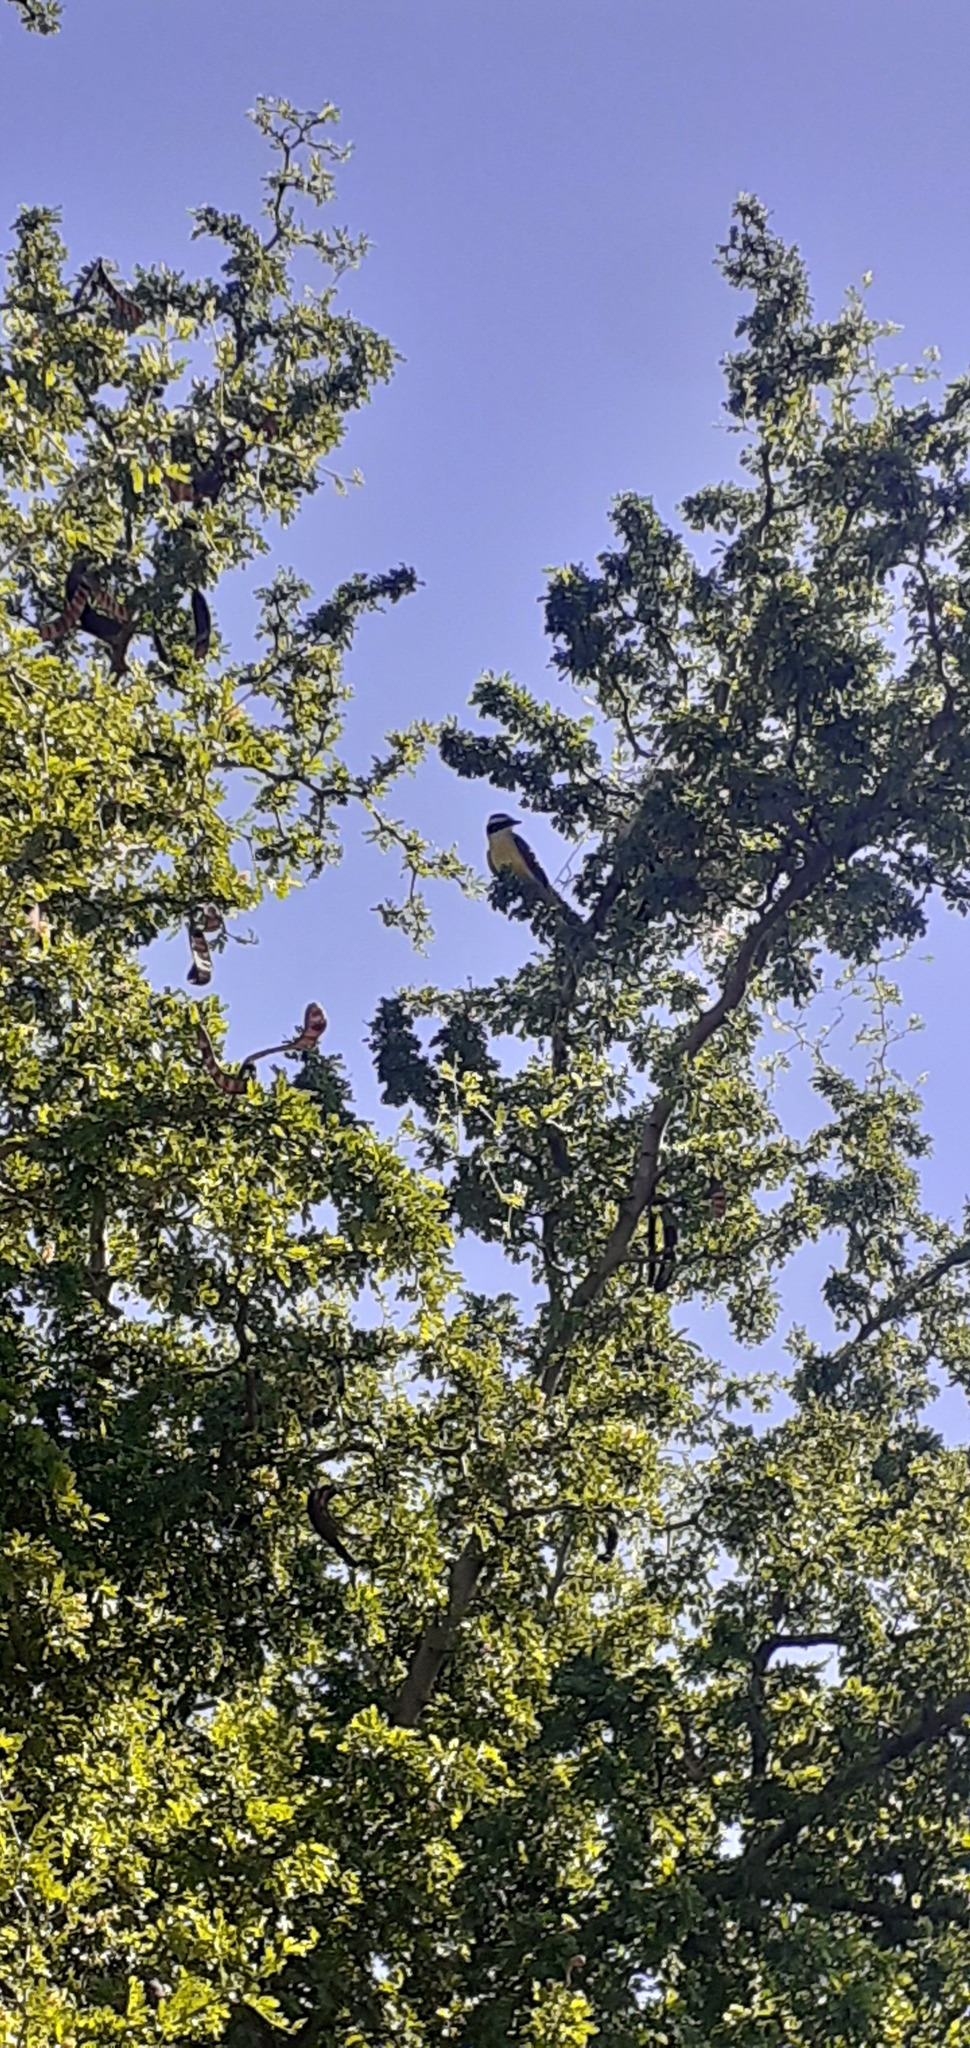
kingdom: Animalia
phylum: Chordata
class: Aves
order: Passeriformes
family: Tyrannidae
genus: Pitangus
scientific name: Pitangus sulphuratus
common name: Great kiskadee
